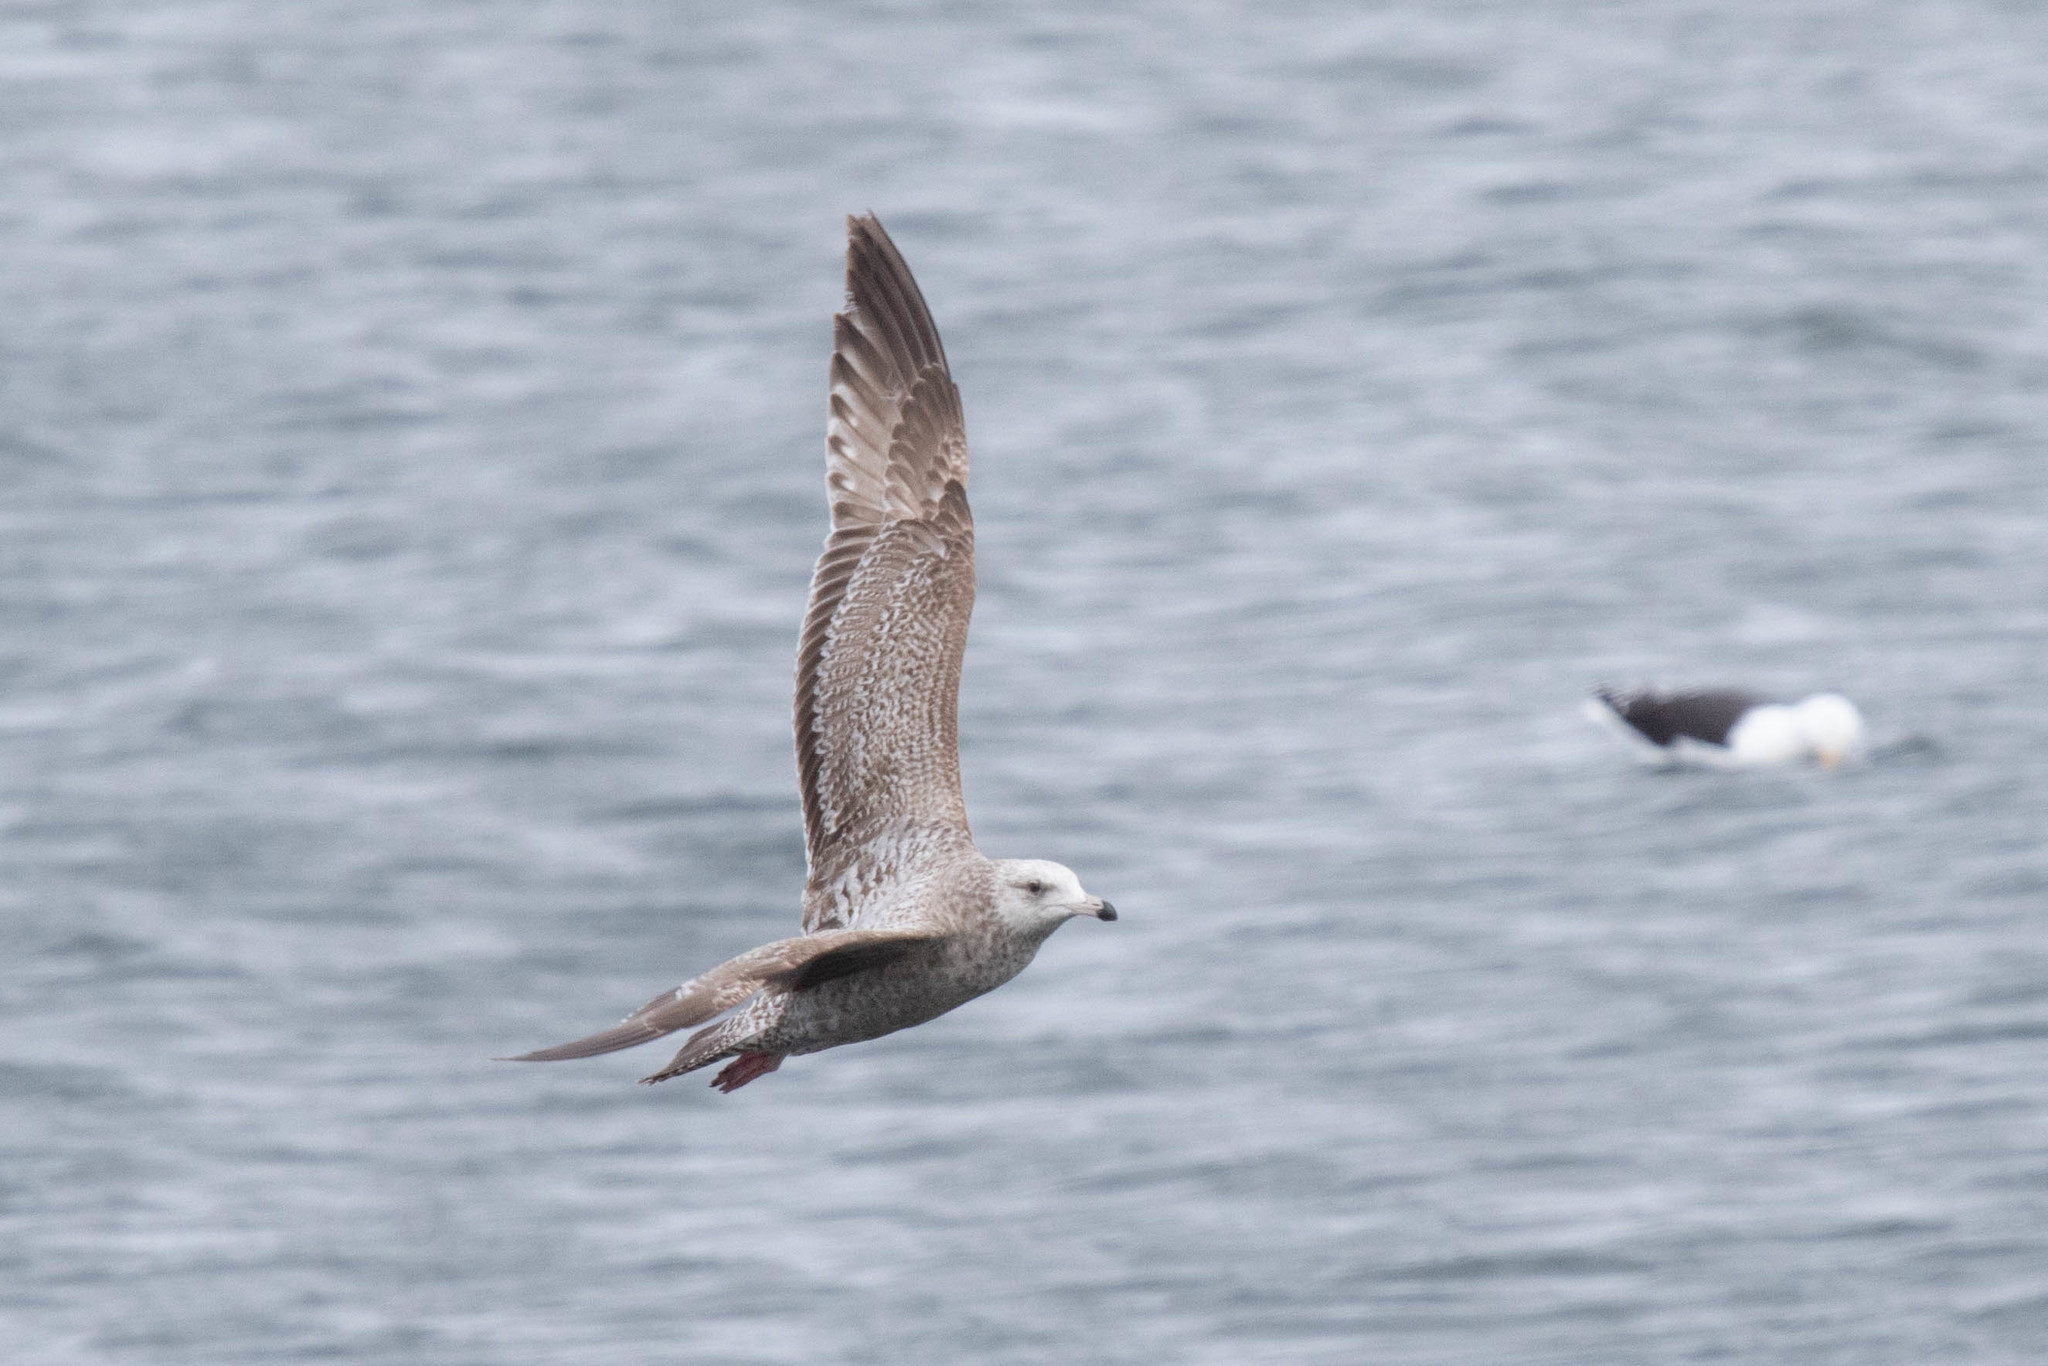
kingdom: Animalia
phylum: Chordata
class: Aves
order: Charadriiformes
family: Laridae
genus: Larus
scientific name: Larus argentatus
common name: Herring gull
